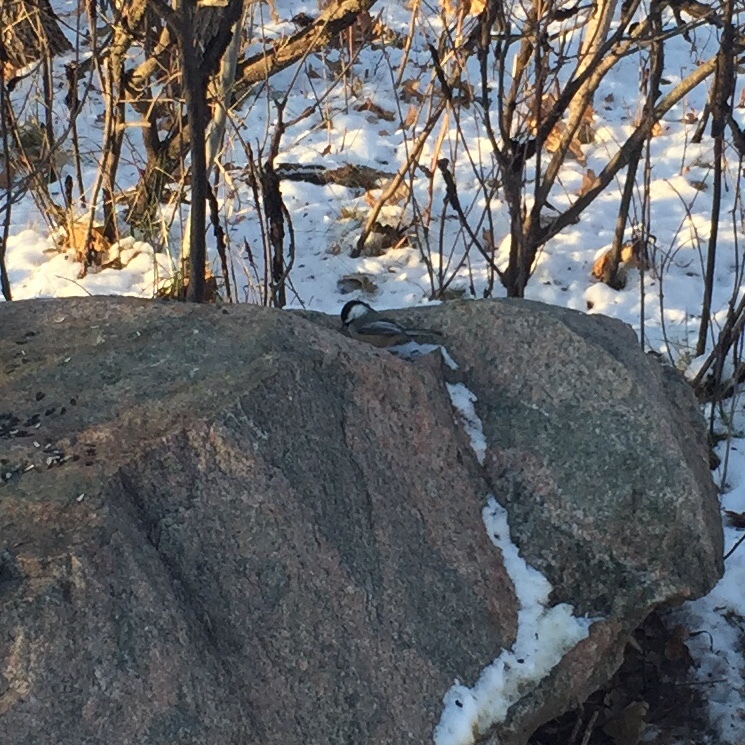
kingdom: Animalia
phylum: Chordata
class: Aves
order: Passeriformes
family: Paridae
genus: Poecile
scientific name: Poecile atricapillus
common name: Black-capped chickadee
